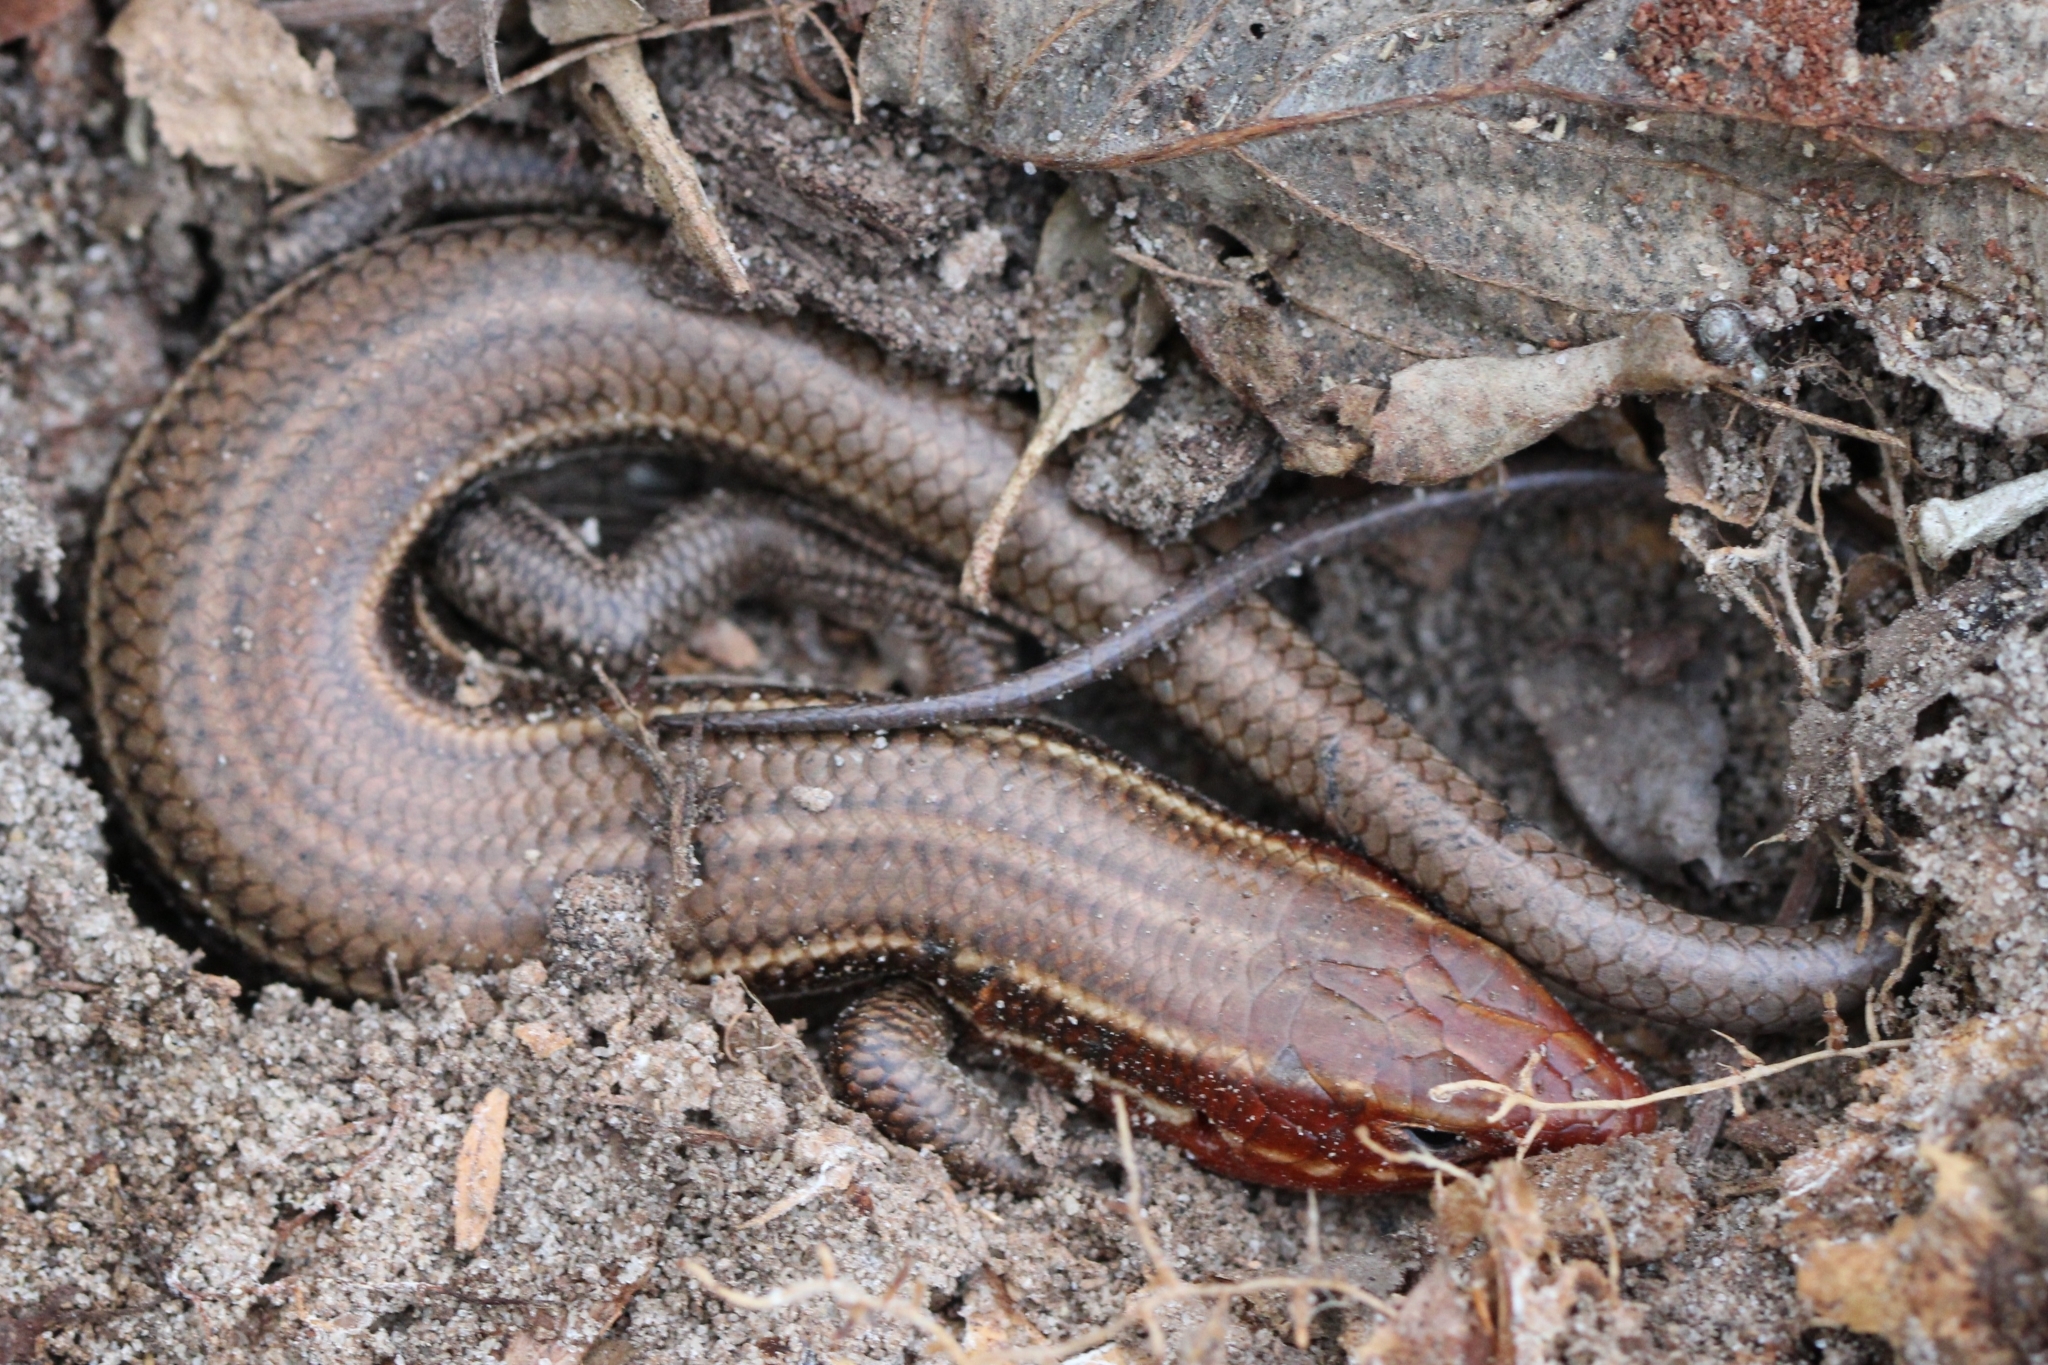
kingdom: Animalia
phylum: Chordata
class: Squamata
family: Scincidae
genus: Plestiodon
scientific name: Plestiodon inexpectatus
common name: Southeastern five-lined skink
